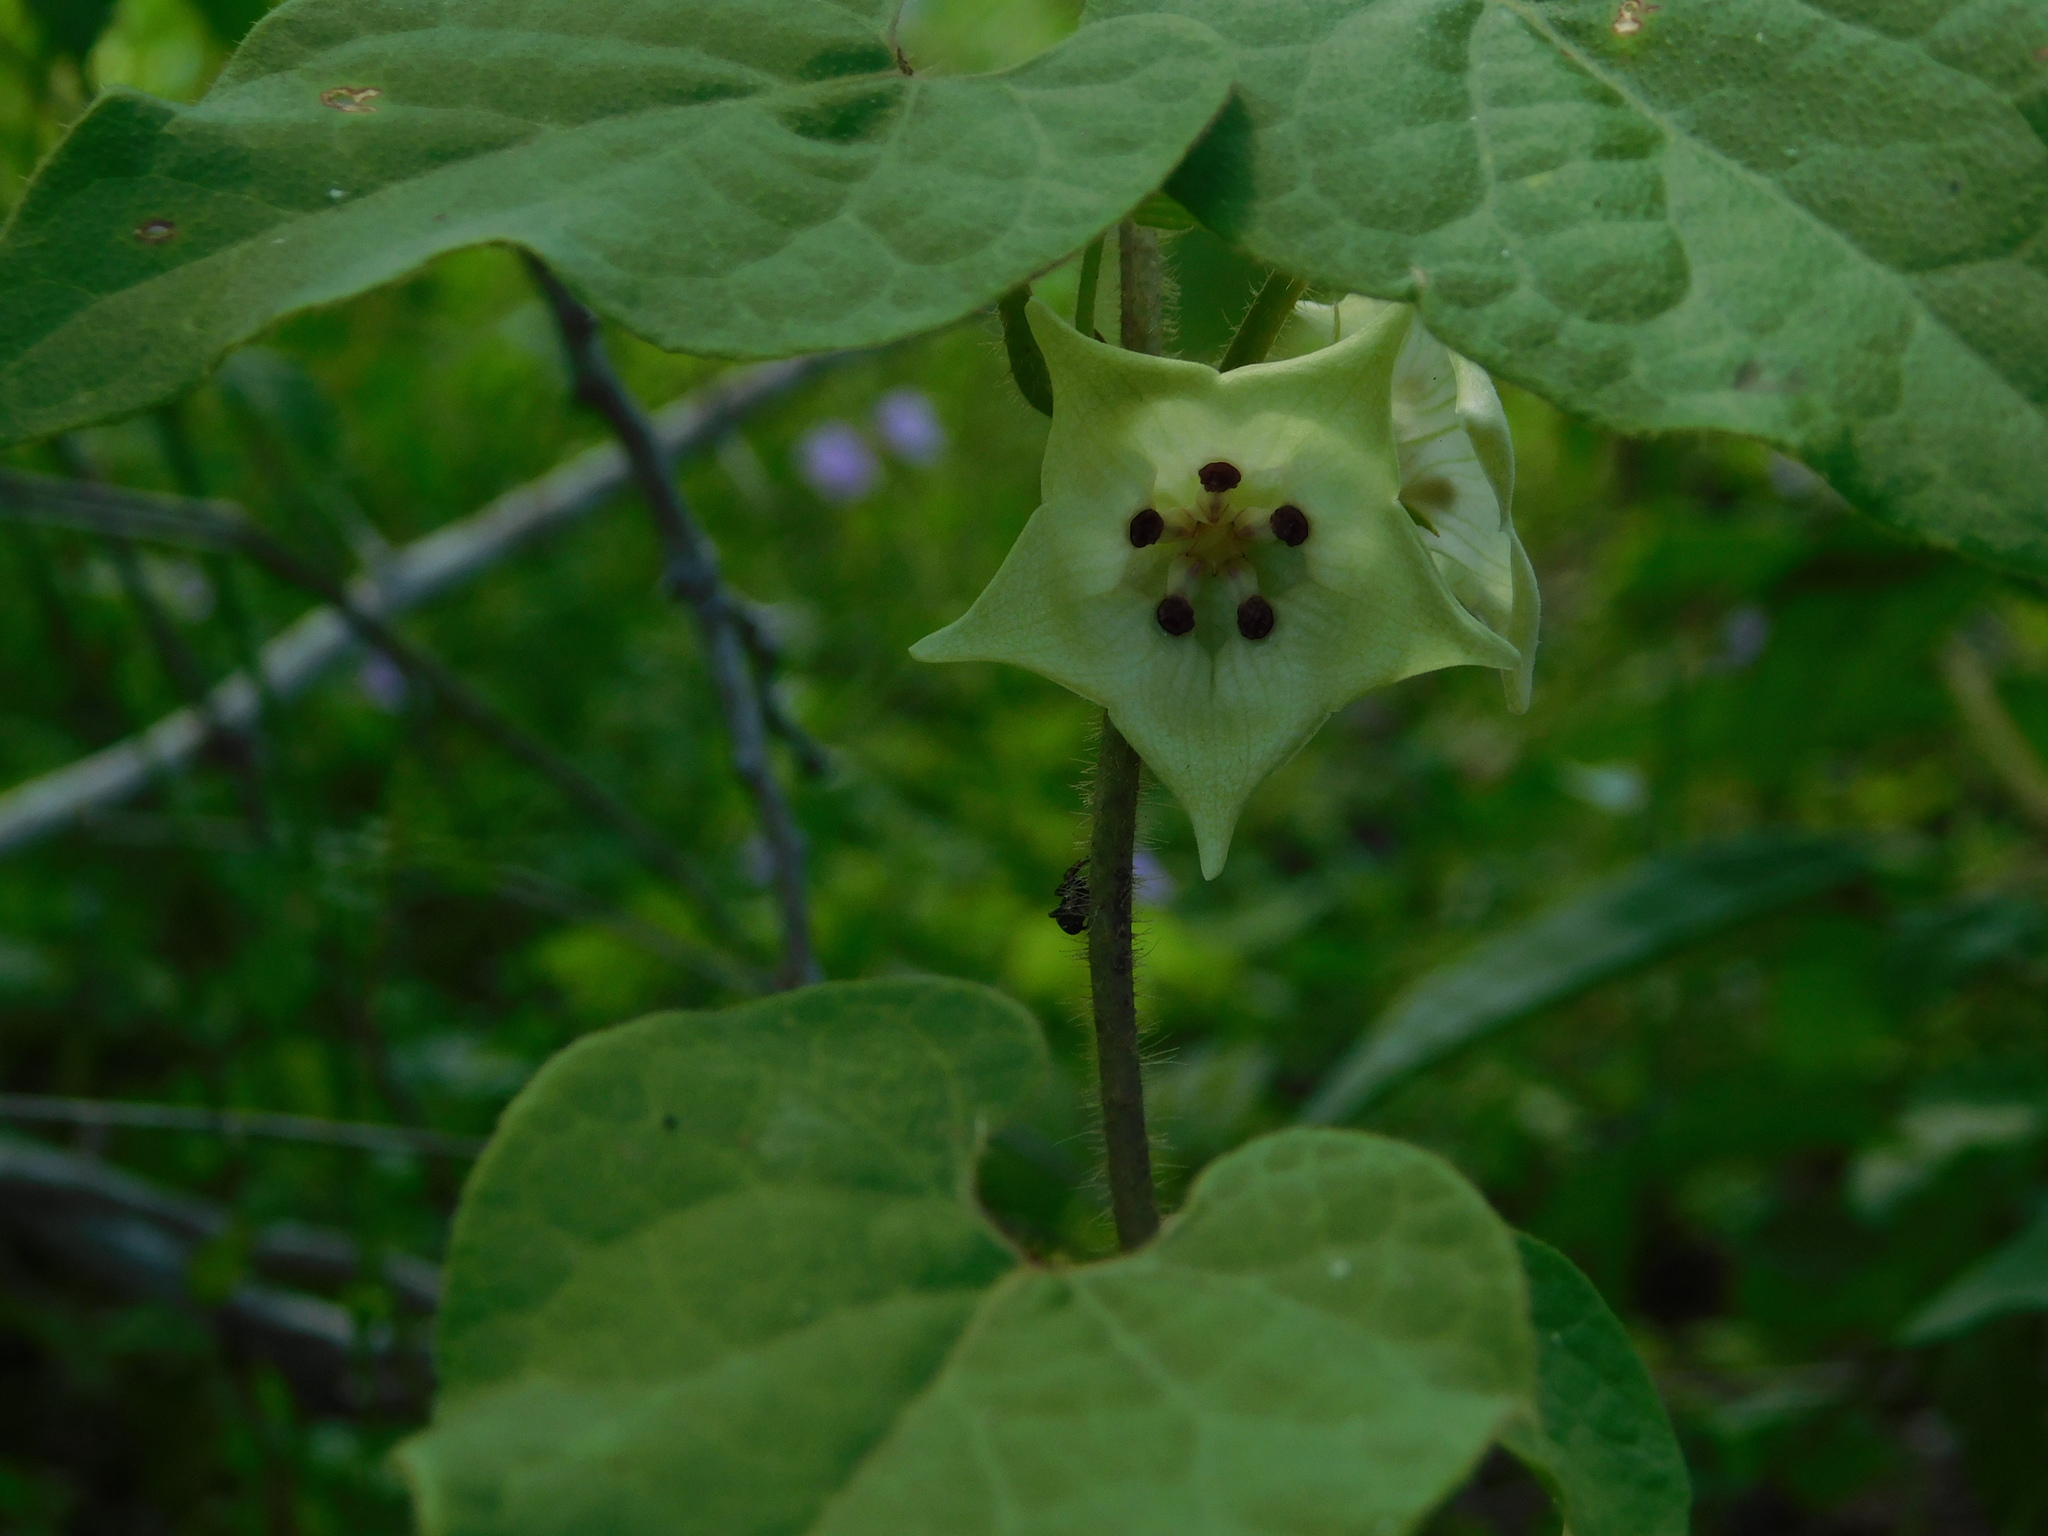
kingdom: Plantae
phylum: Tracheophyta
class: Magnoliopsida
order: Gentianales
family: Apocynaceae
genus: Dictyanthus
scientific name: Dictyanthus yucatanensis
